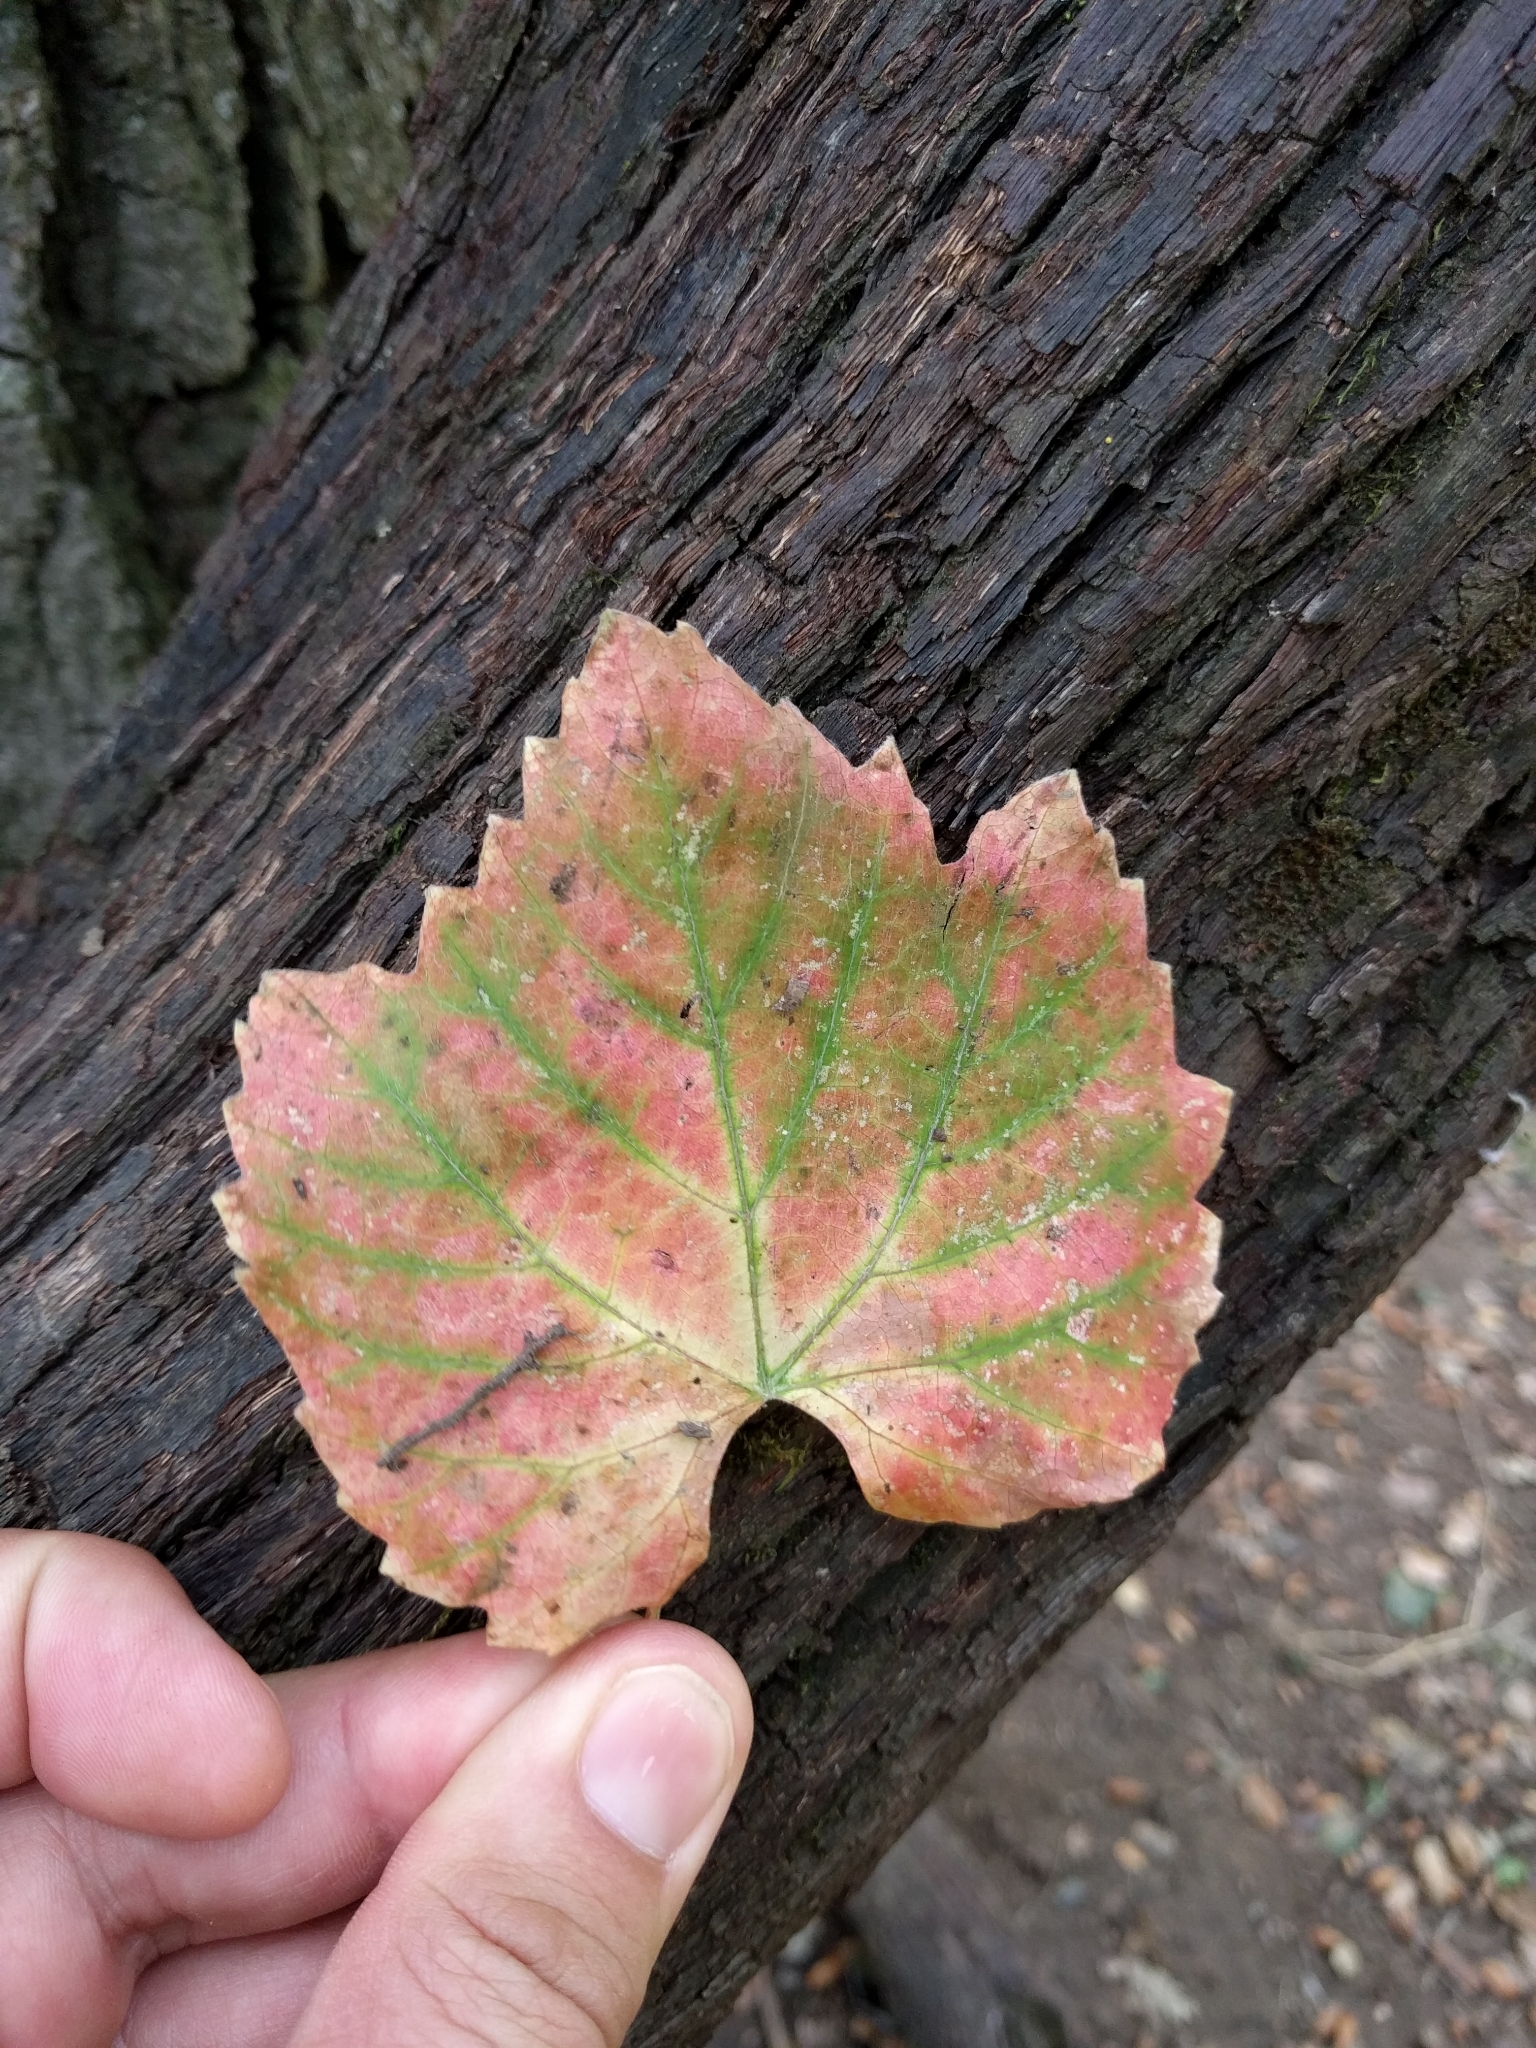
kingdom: Plantae
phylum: Tracheophyta
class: Magnoliopsida
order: Vitales
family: Vitaceae
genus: Vitis
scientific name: Vitis californica
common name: California wild grape
